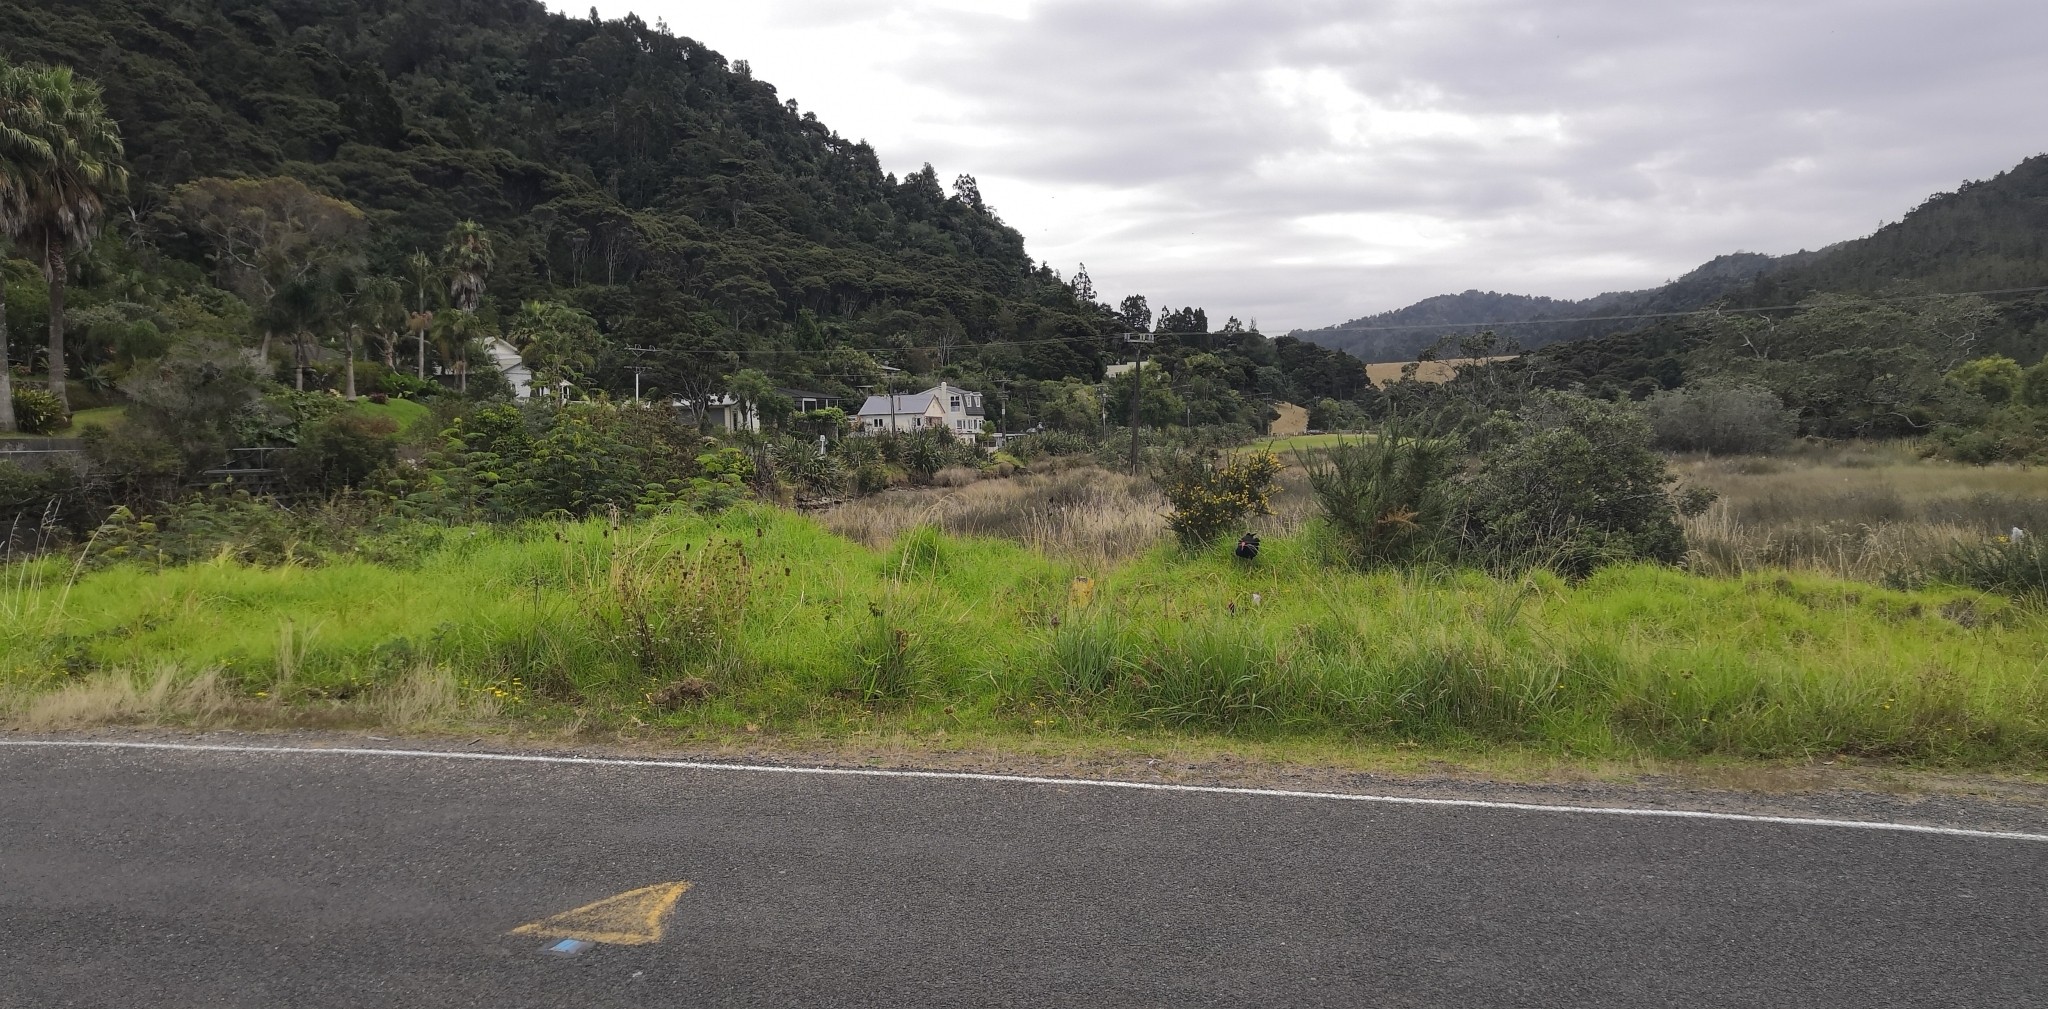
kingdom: Animalia
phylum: Chordata
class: Aves
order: Gruiformes
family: Rallidae
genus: Porphyrio
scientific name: Porphyrio melanotus
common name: Australasian swamphen
